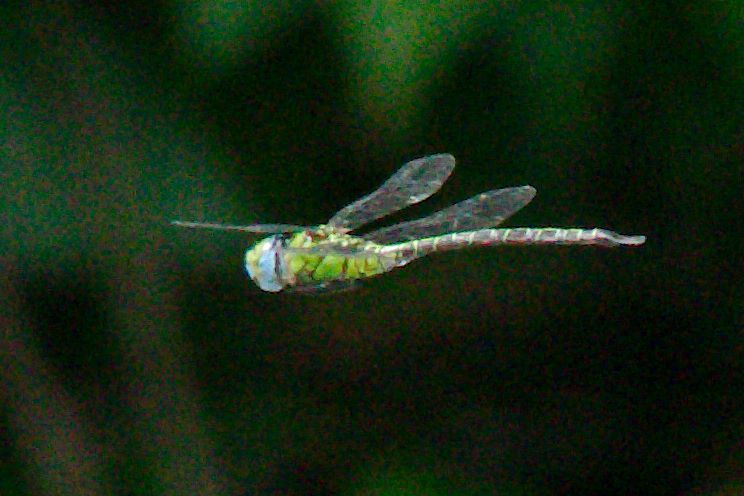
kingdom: Animalia
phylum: Arthropoda
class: Insecta
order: Odonata
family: Aeshnidae
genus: Coryphaeschna
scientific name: Coryphaeschna adnexa
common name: Blue-faced darner
